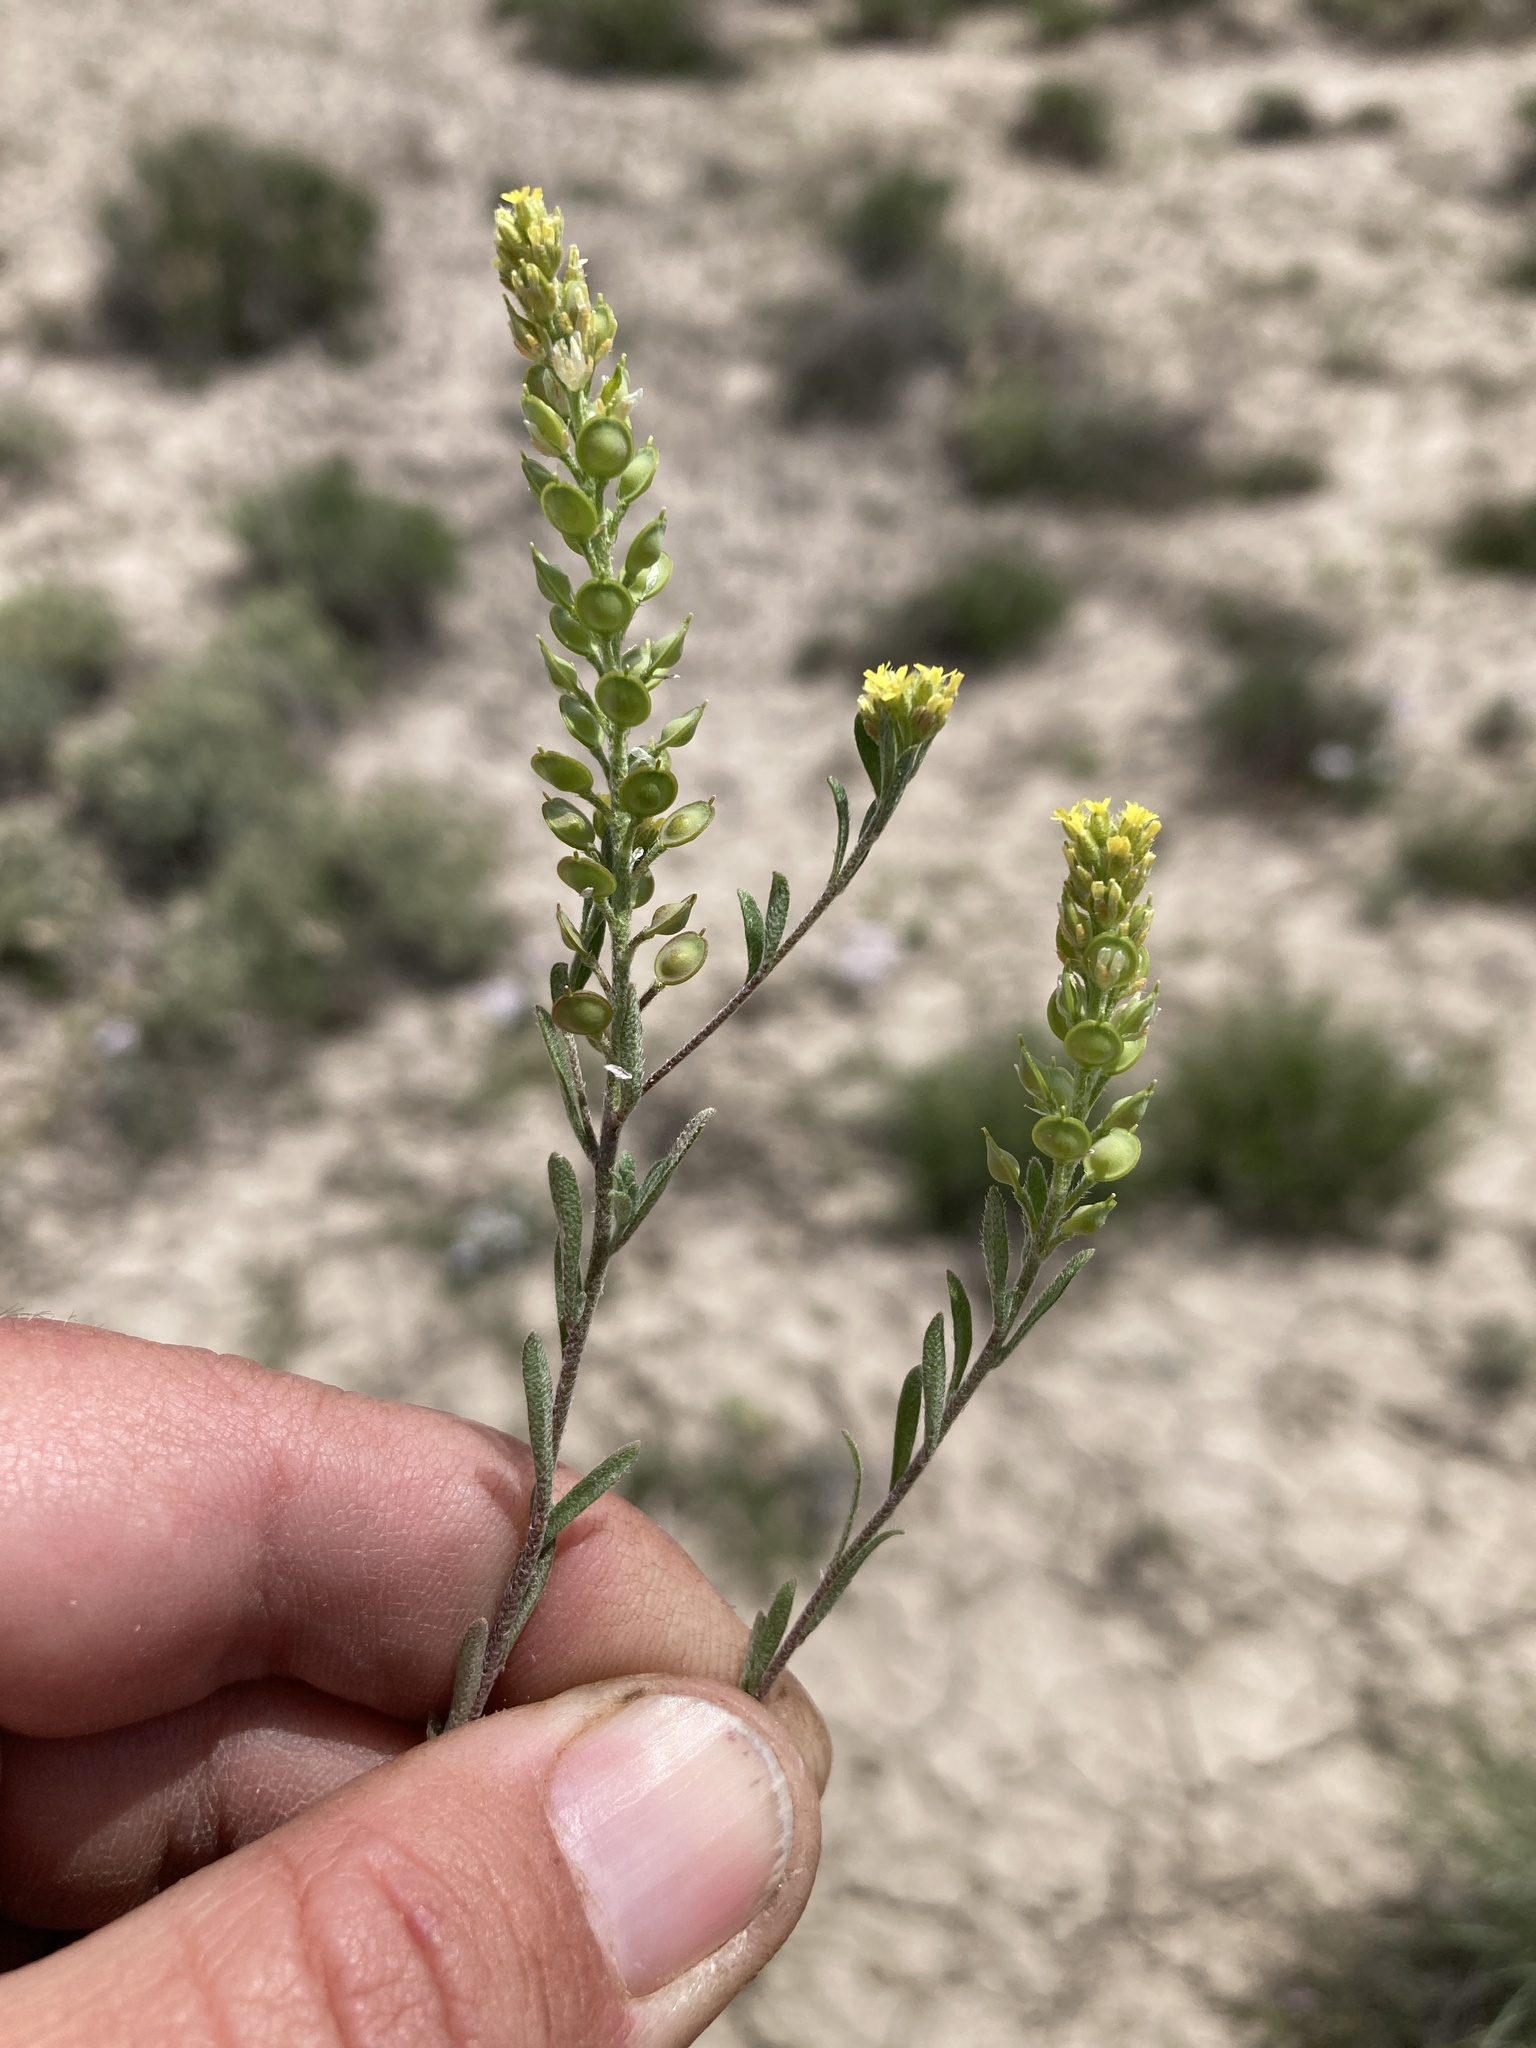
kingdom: Plantae
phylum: Tracheophyta
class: Magnoliopsida
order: Brassicales
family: Brassicaceae
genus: Alyssum
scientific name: Alyssum turkestanicum
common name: Desert alyssum
